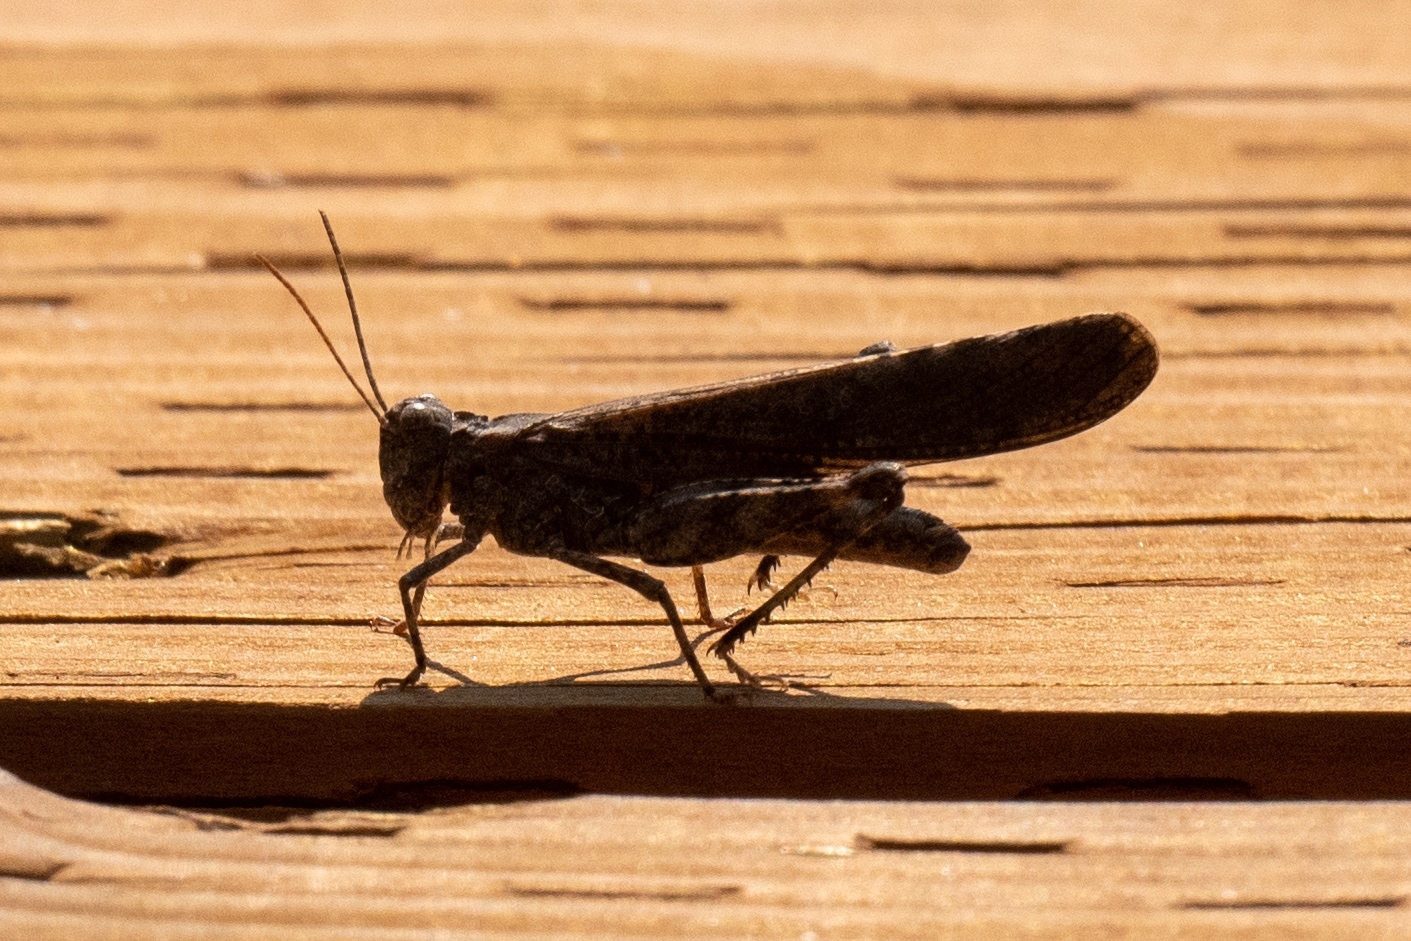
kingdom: Animalia
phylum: Arthropoda
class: Insecta
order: Orthoptera
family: Acrididae
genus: Trimerotropis
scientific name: Trimerotropis verruculata
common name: Crackling forest grasshopper
